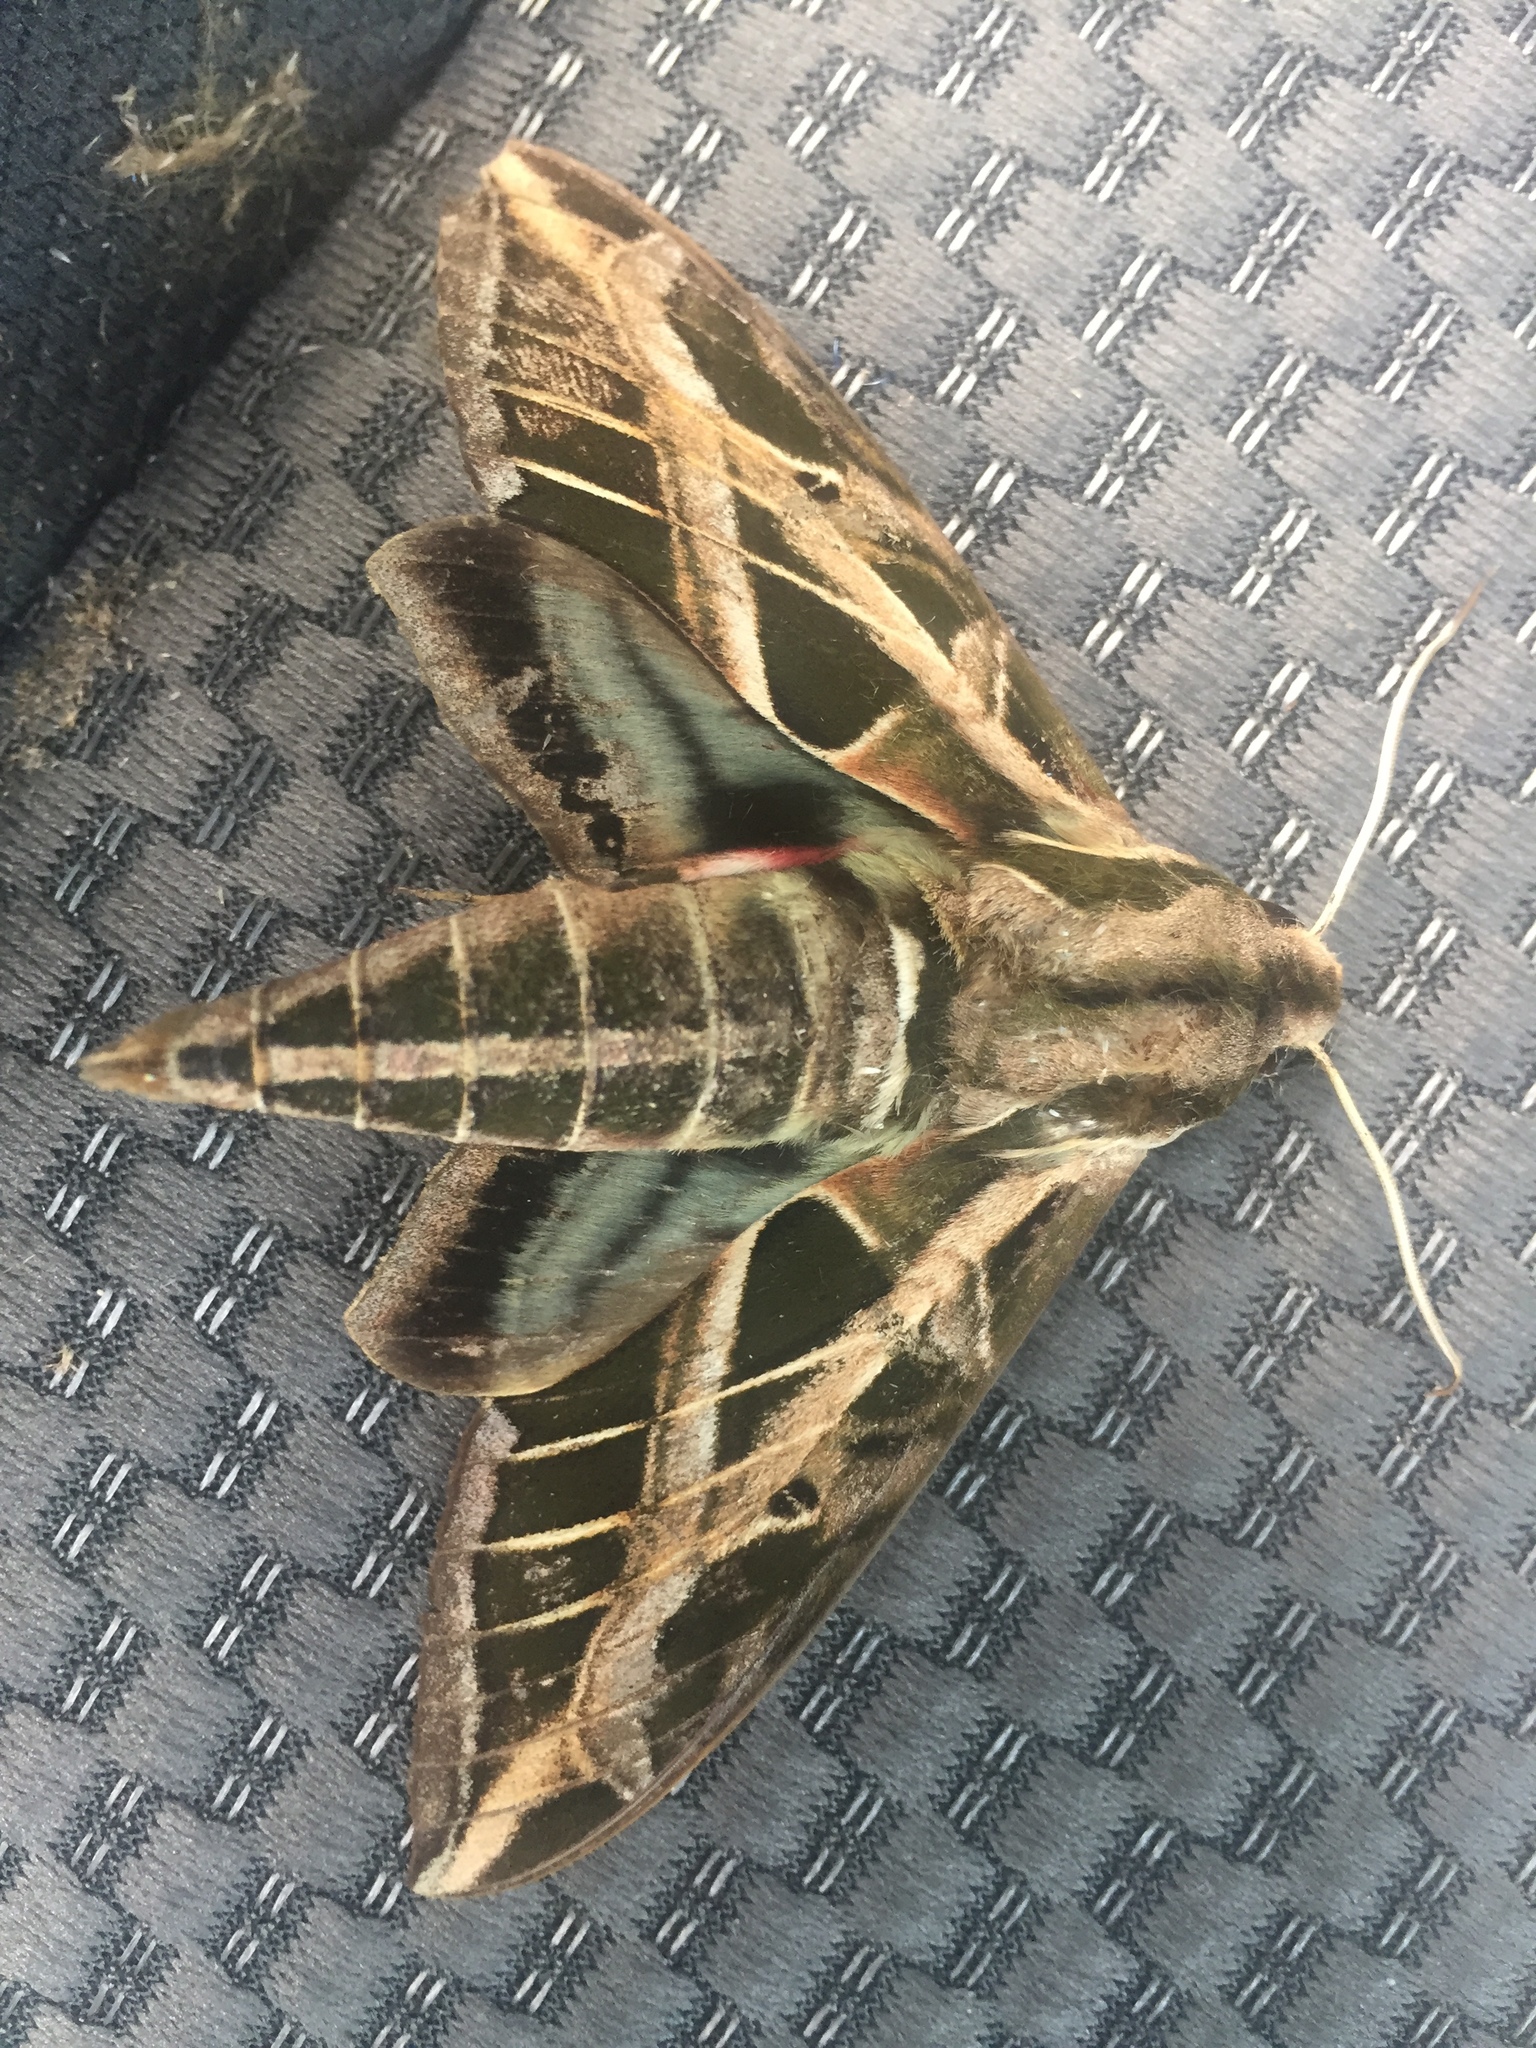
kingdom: Animalia
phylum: Arthropoda
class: Insecta
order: Lepidoptera
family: Sphingidae
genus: Eumorpha
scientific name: Eumorpha vitis
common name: Vine sphinx
